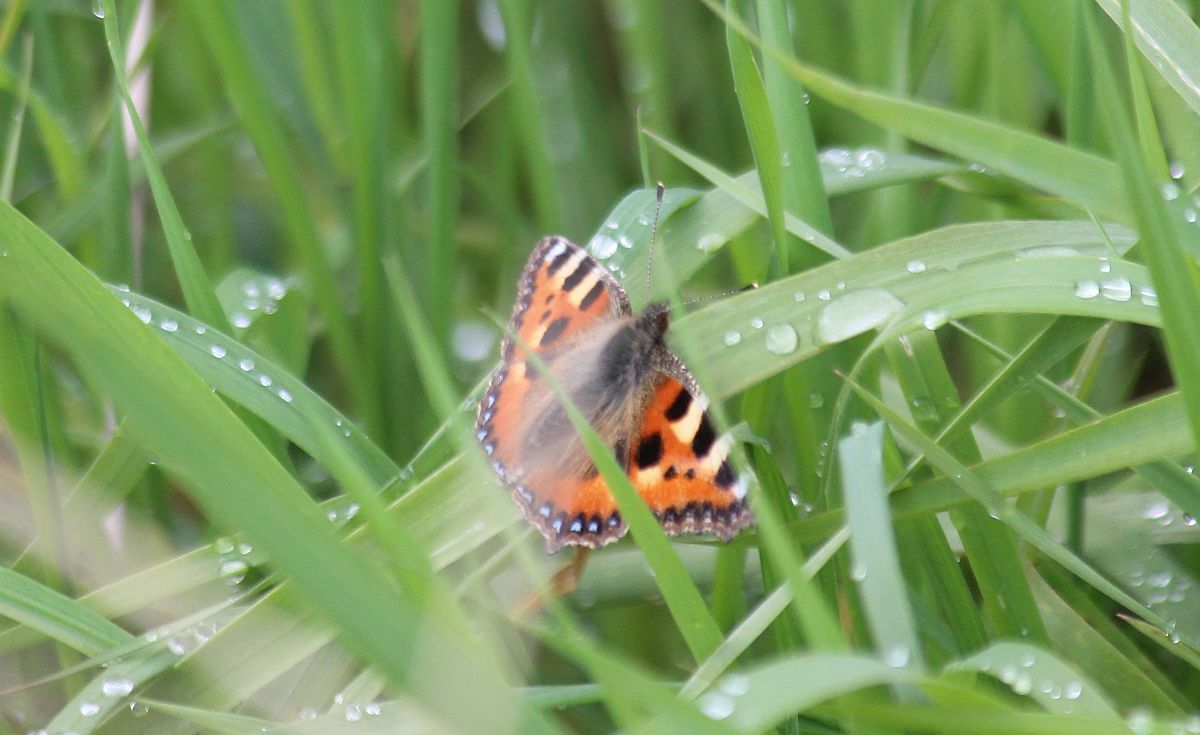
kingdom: Animalia
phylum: Arthropoda
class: Insecta
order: Lepidoptera
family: Nymphalidae
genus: Aglais
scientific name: Aglais urticae
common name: Small tortoiseshell
